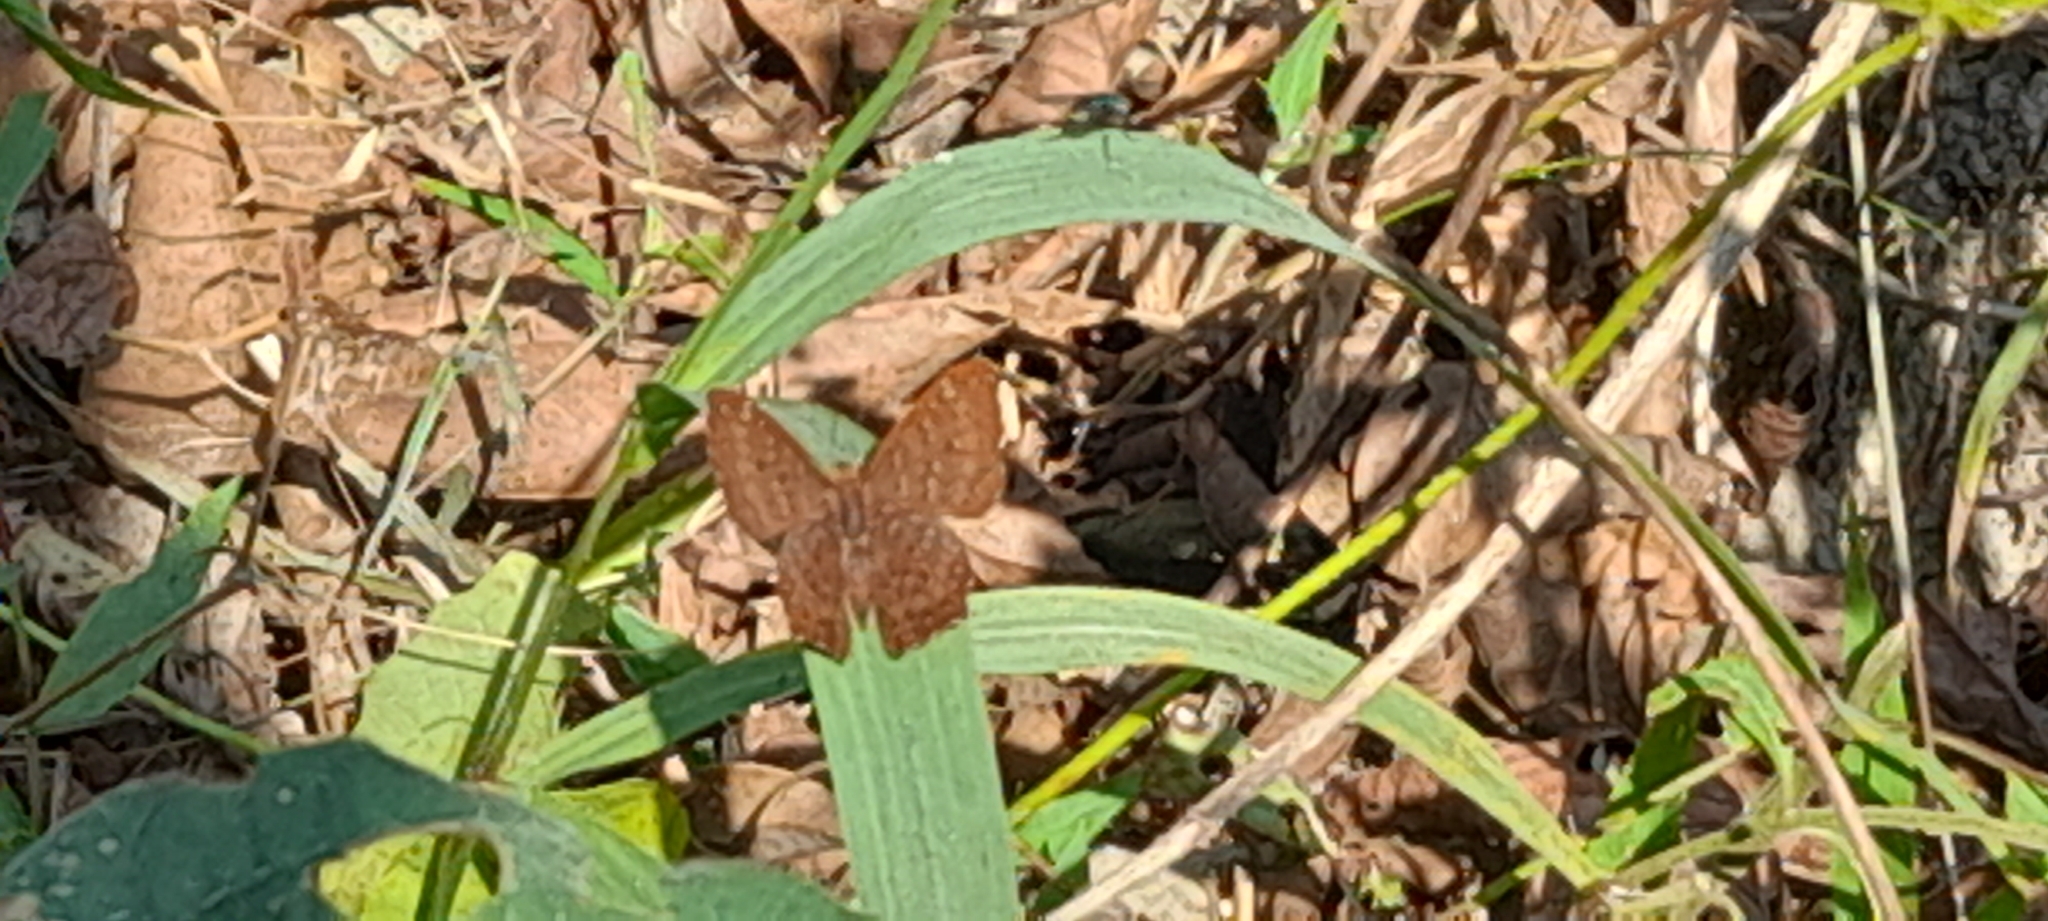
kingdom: Animalia
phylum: Arthropoda
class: Insecta
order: Lepidoptera
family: Riodinidae
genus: Zemeros
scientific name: Zemeros flegyas
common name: Punchinello
